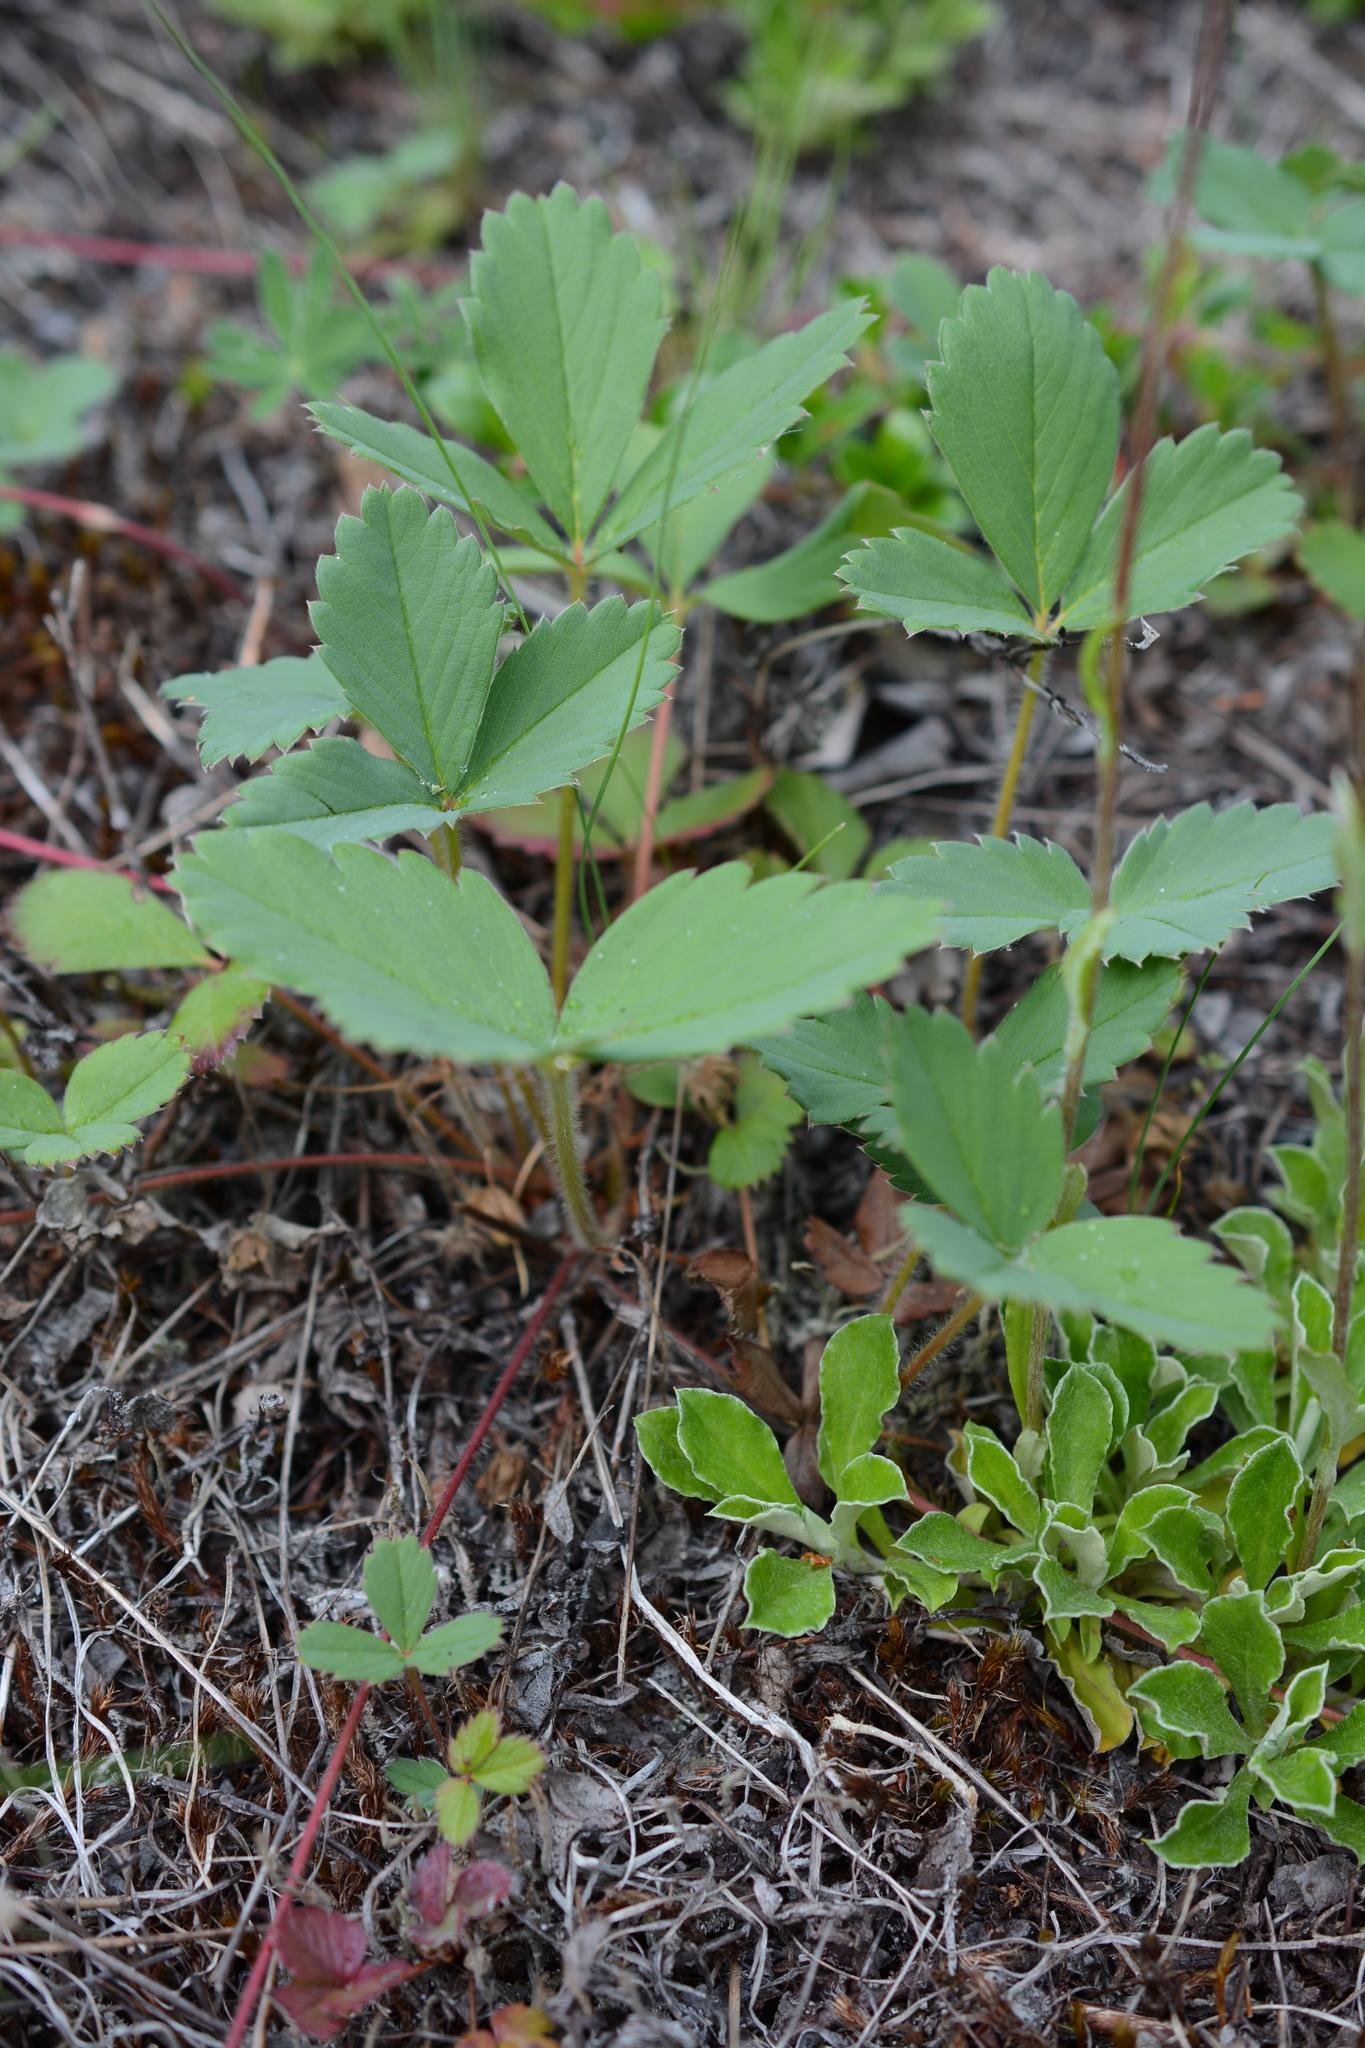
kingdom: Plantae
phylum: Tracheophyta
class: Magnoliopsida
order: Rosales
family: Rosaceae
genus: Fragaria
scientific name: Fragaria virginiana
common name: Thickleaved wild strawberry
